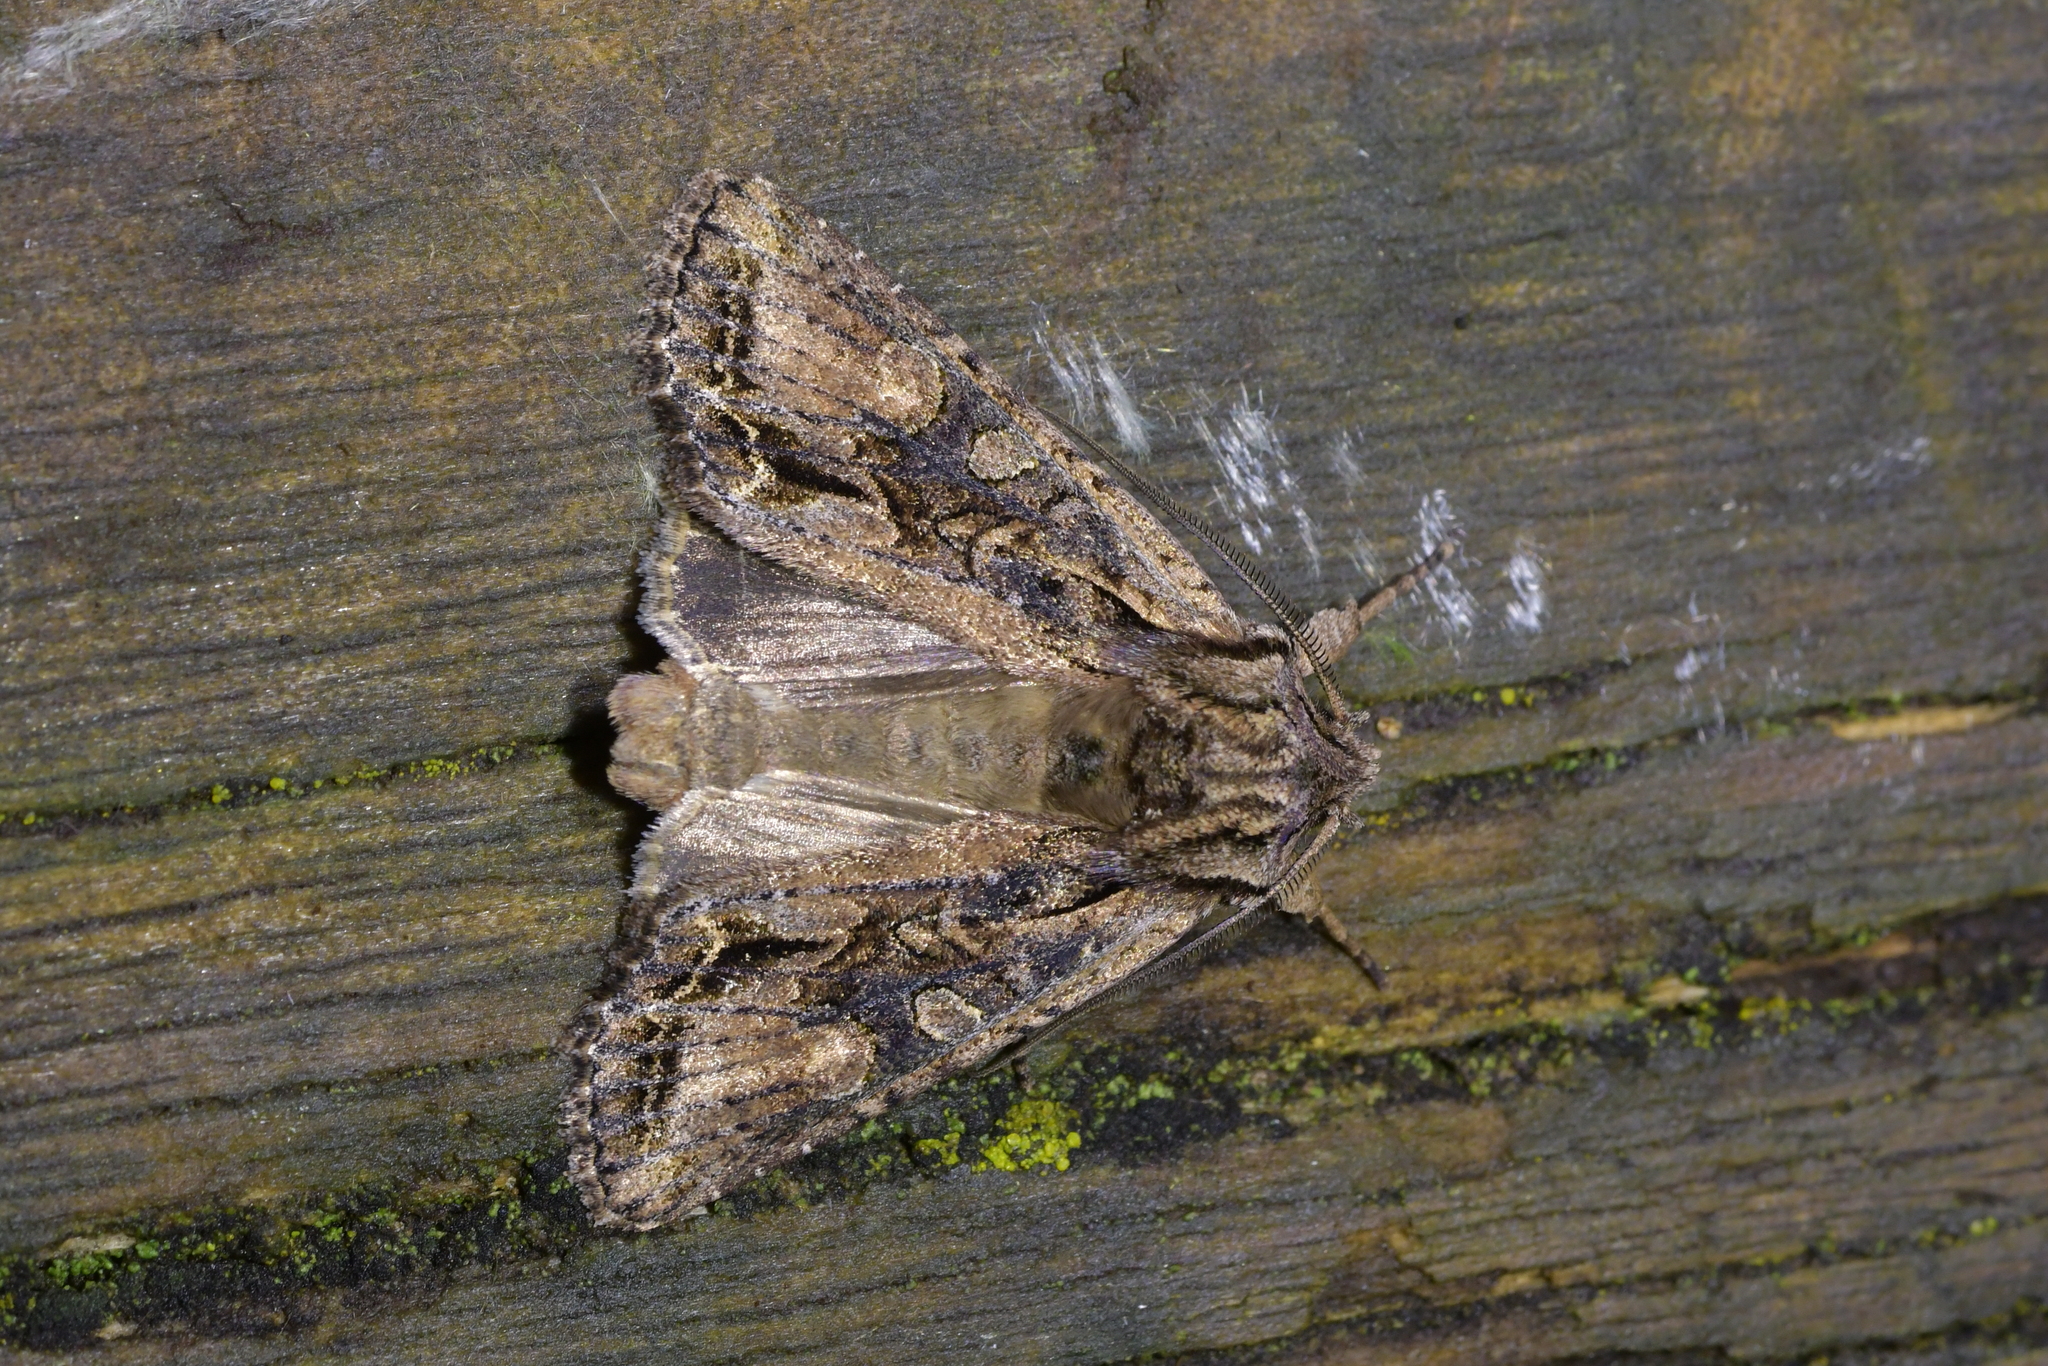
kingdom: Animalia
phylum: Arthropoda
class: Insecta
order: Lepidoptera
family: Noctuidae
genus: Ichneutica
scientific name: Ichneutica mutans
